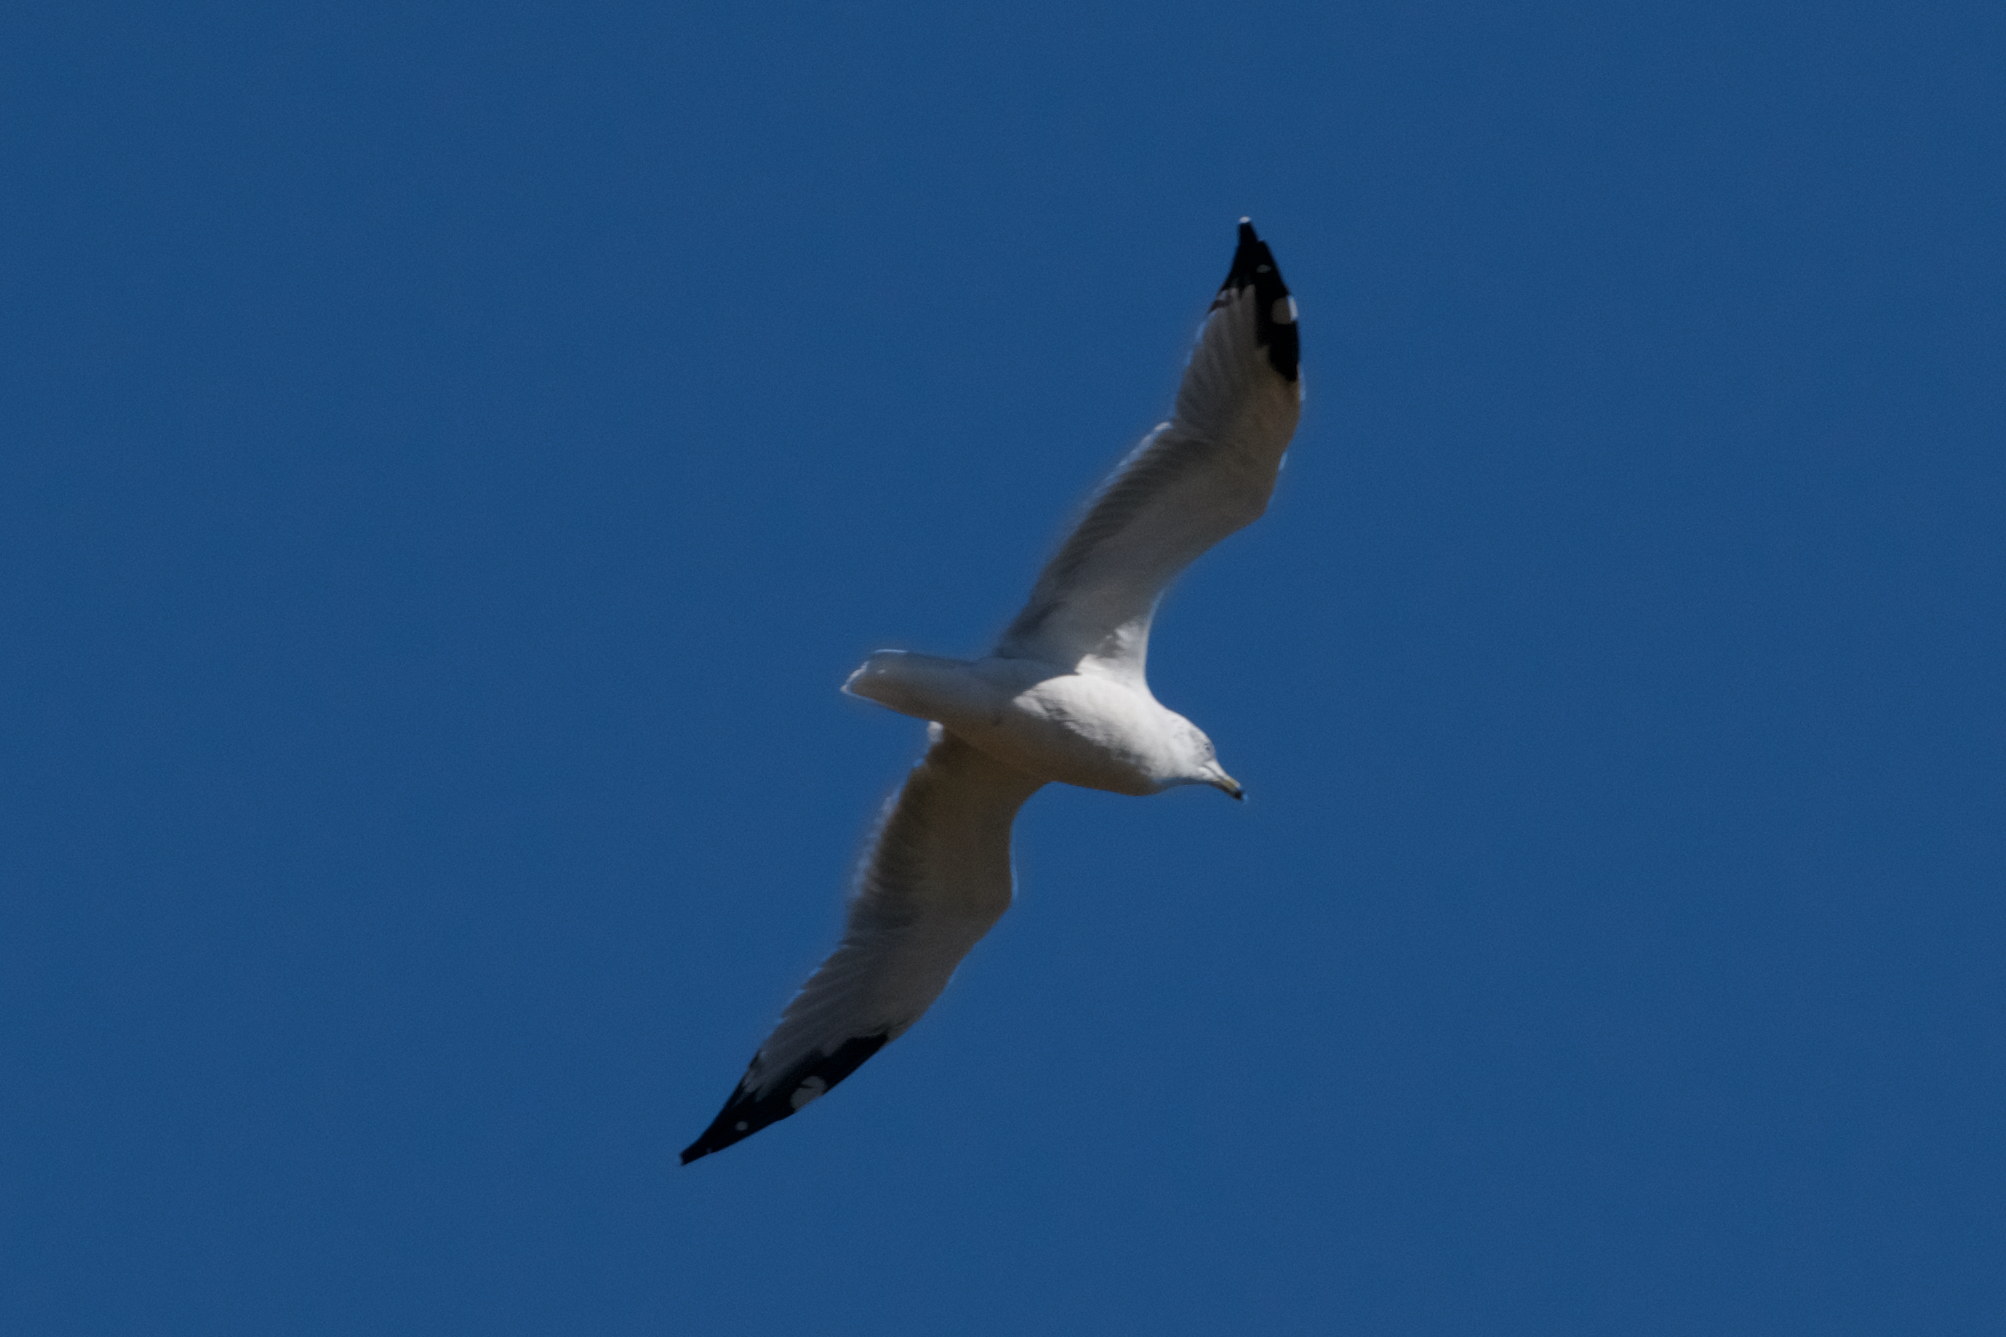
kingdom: Animalia
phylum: Chordata
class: Aves
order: Charadriiformes
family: Laridae
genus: Larus
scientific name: Larus delawarensis
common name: Ring-billed gull
